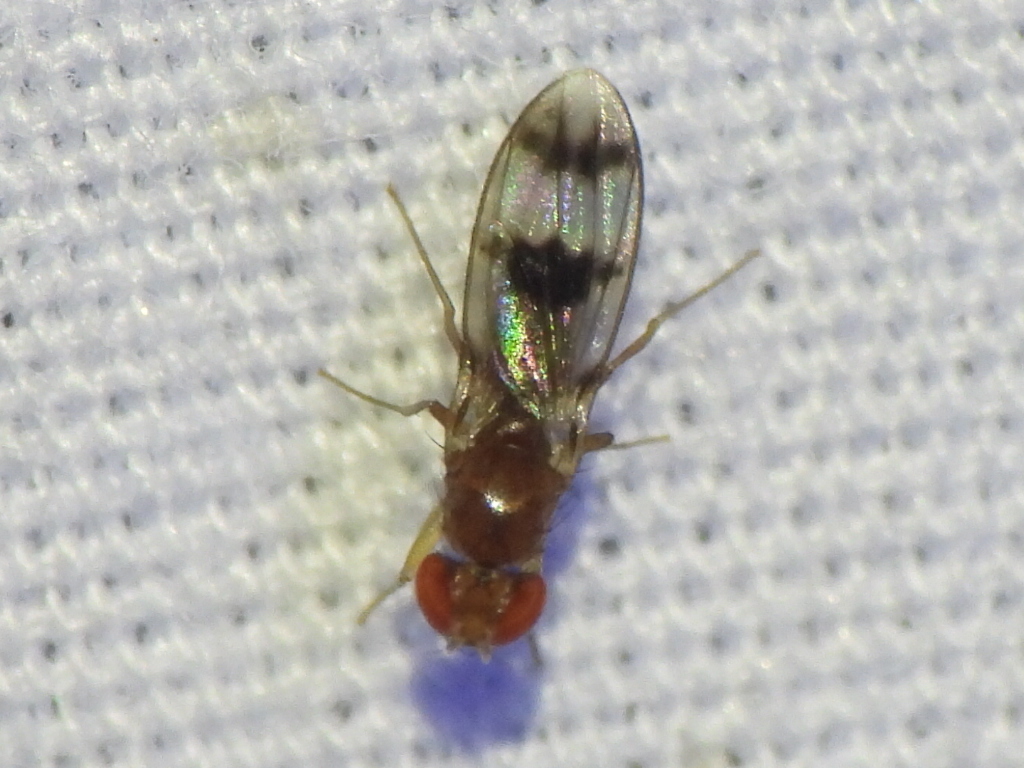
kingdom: Animalia
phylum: Arthropoda
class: Insecta
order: Diptera
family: Drosophilidae
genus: Chymomyza
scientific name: Chymomyza amoena
